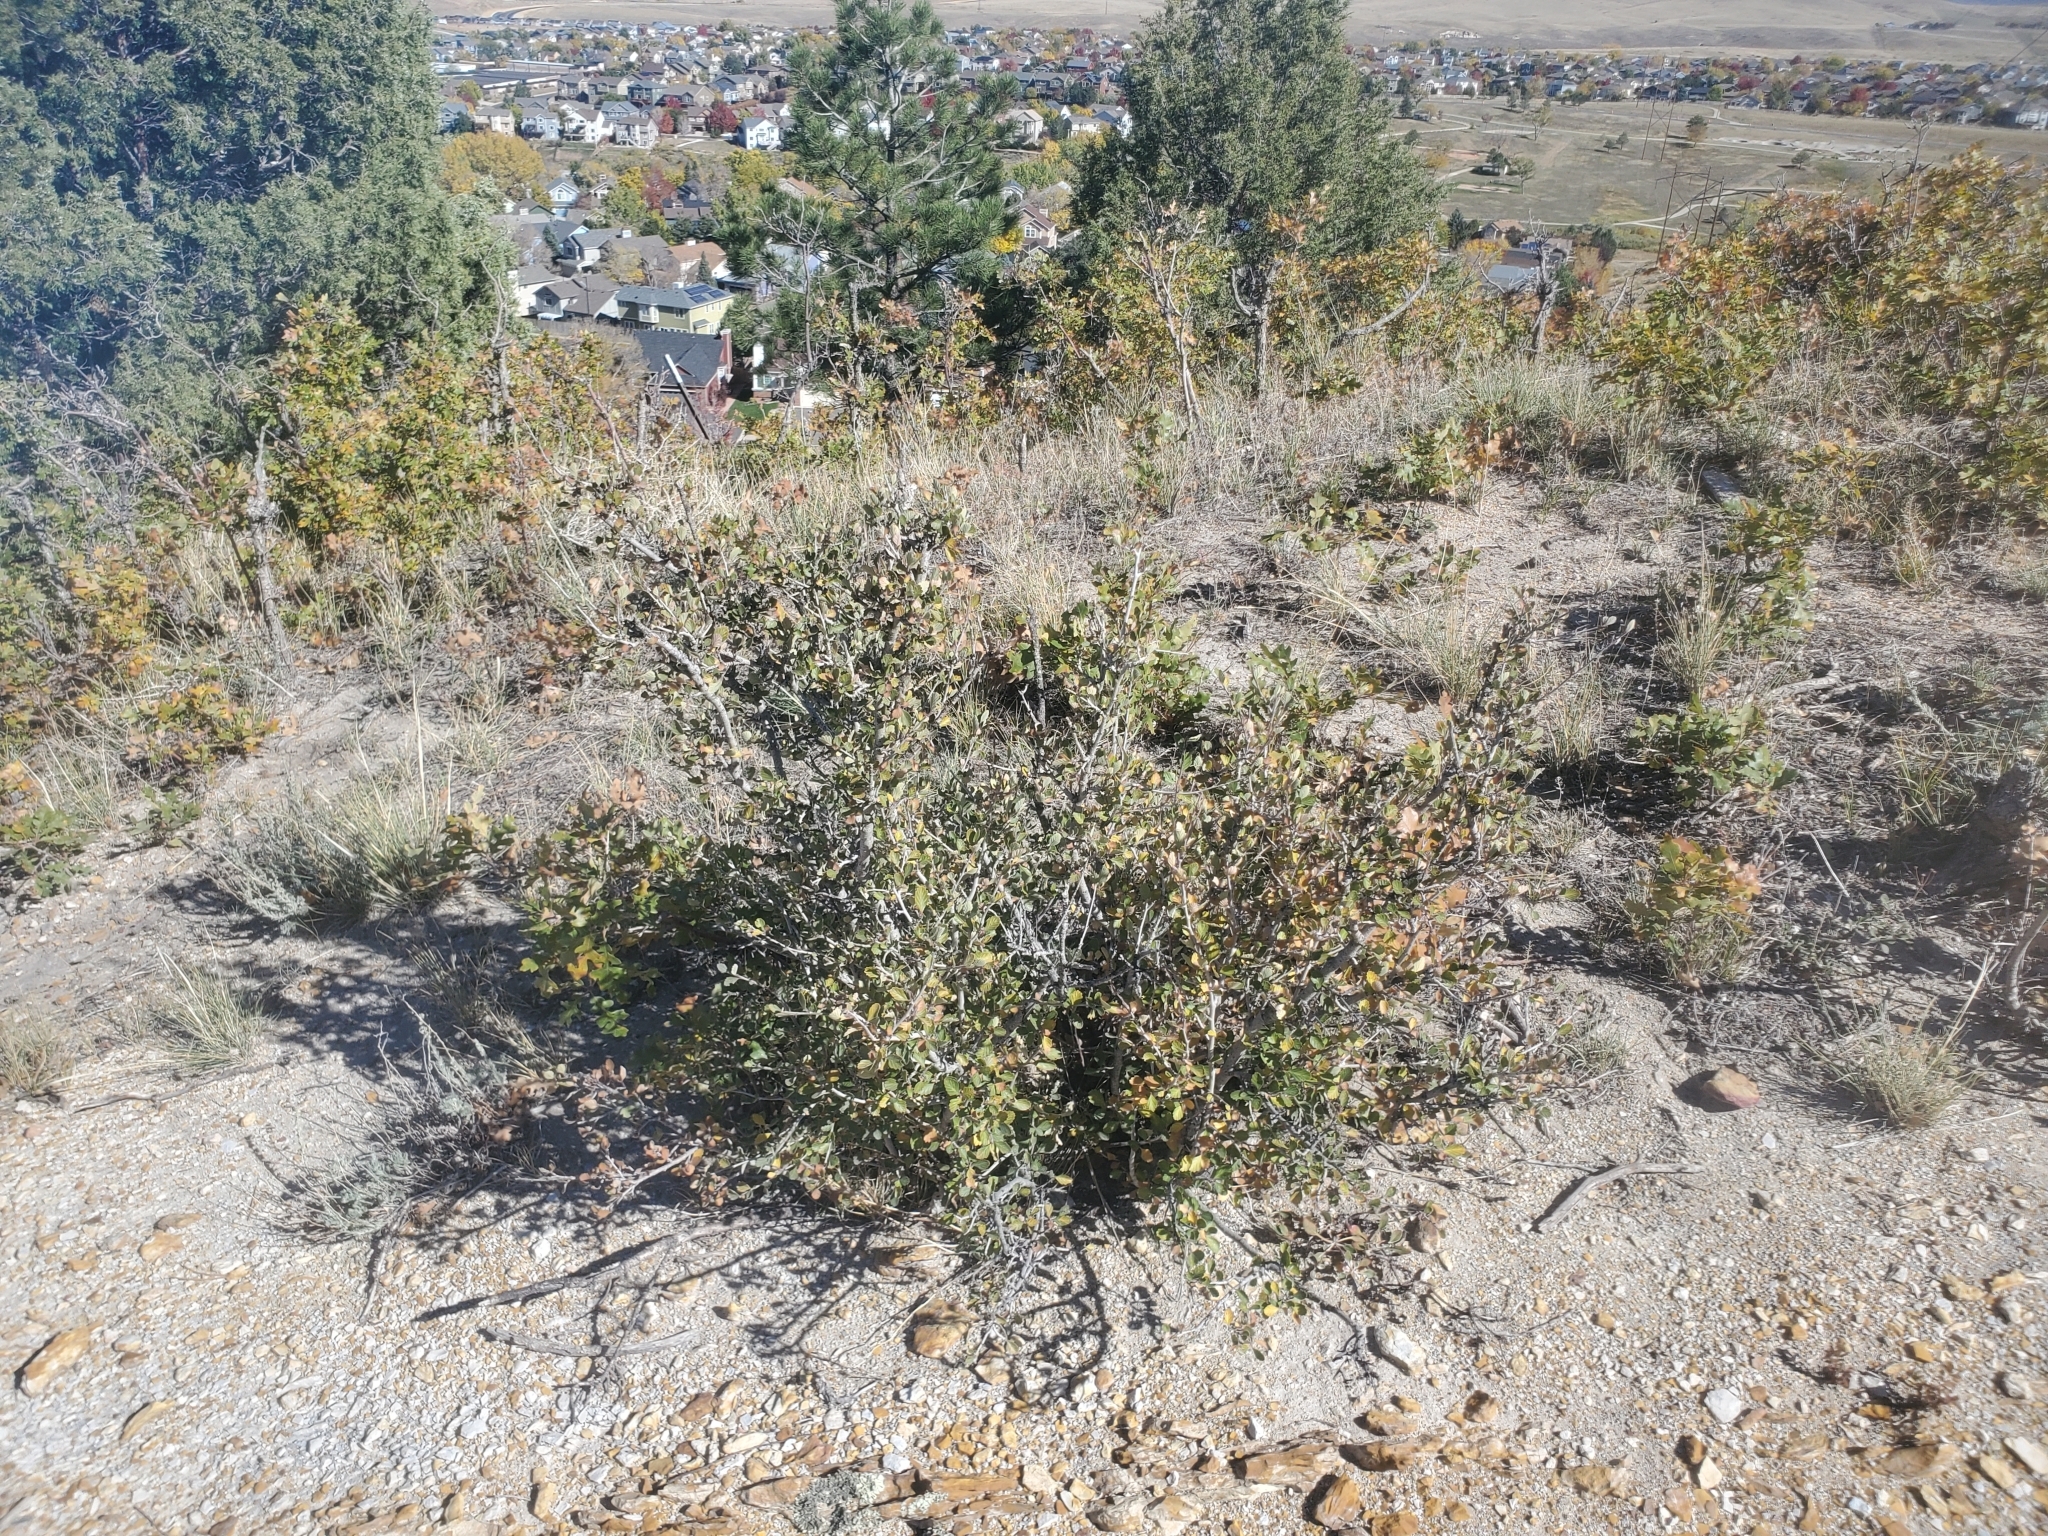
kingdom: Plantae
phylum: Tracheophyta
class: Magnoliopsida
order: Rosales
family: Rosaceae
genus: Cercocarpus
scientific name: Cercocarpus montanus
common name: Alder-leaf cercocarpus
